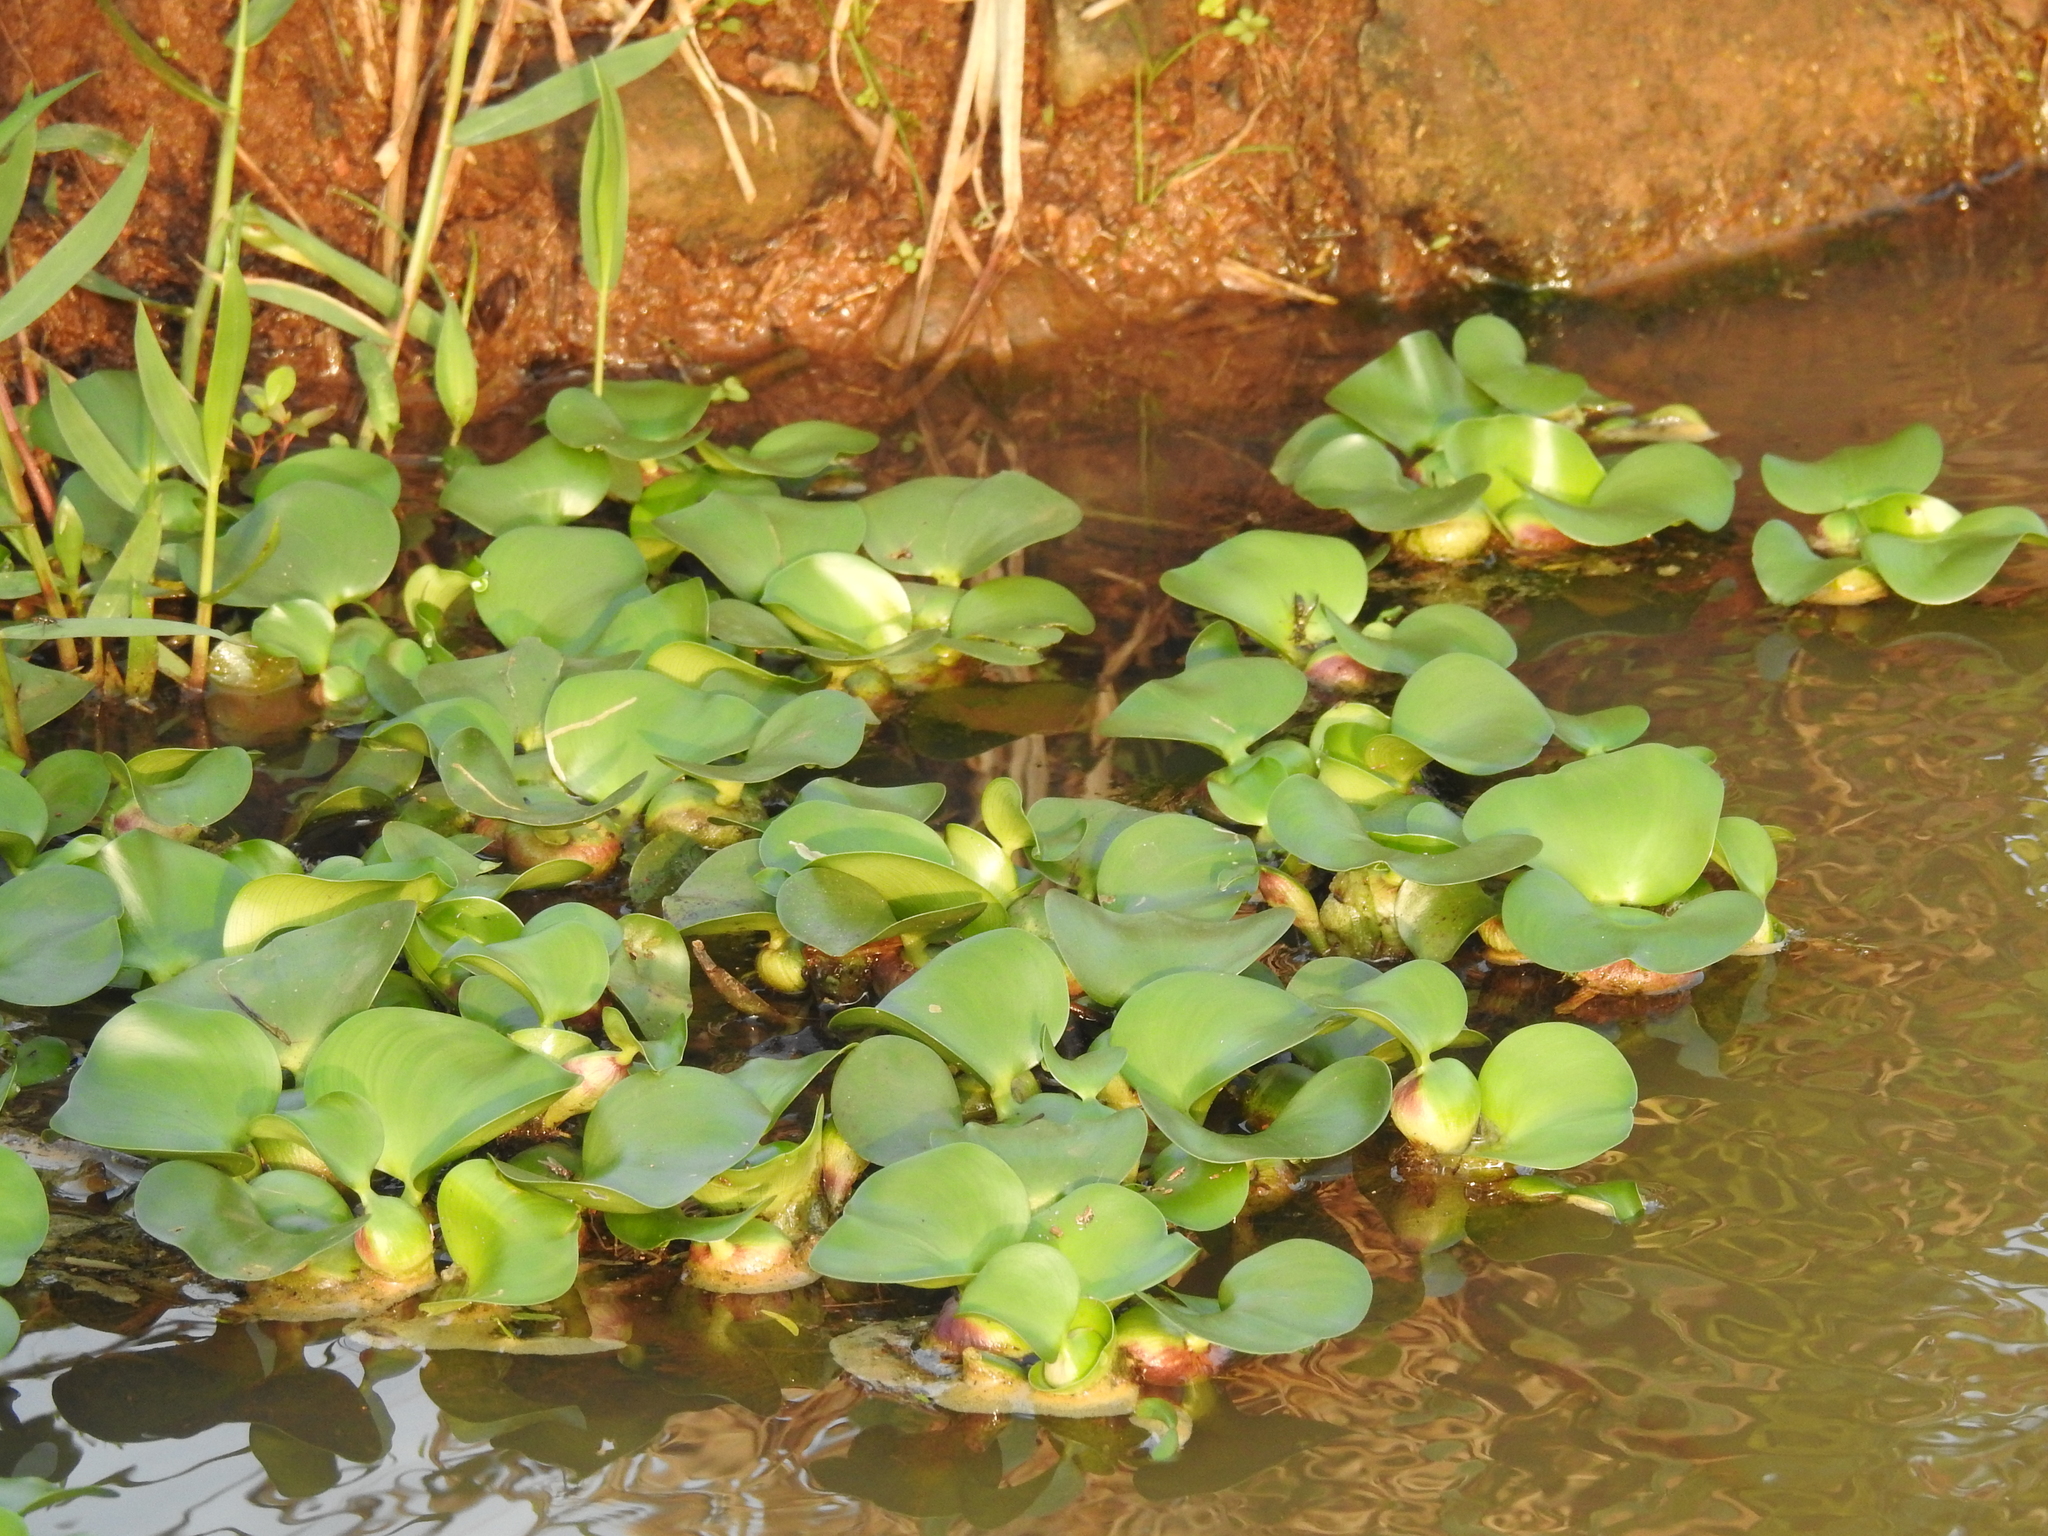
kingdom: Plantae
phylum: Tracheophyta
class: Liliopsida
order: Commelinales
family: Pontederiaceae
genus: Pontederia
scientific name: Pontederia crassipes
